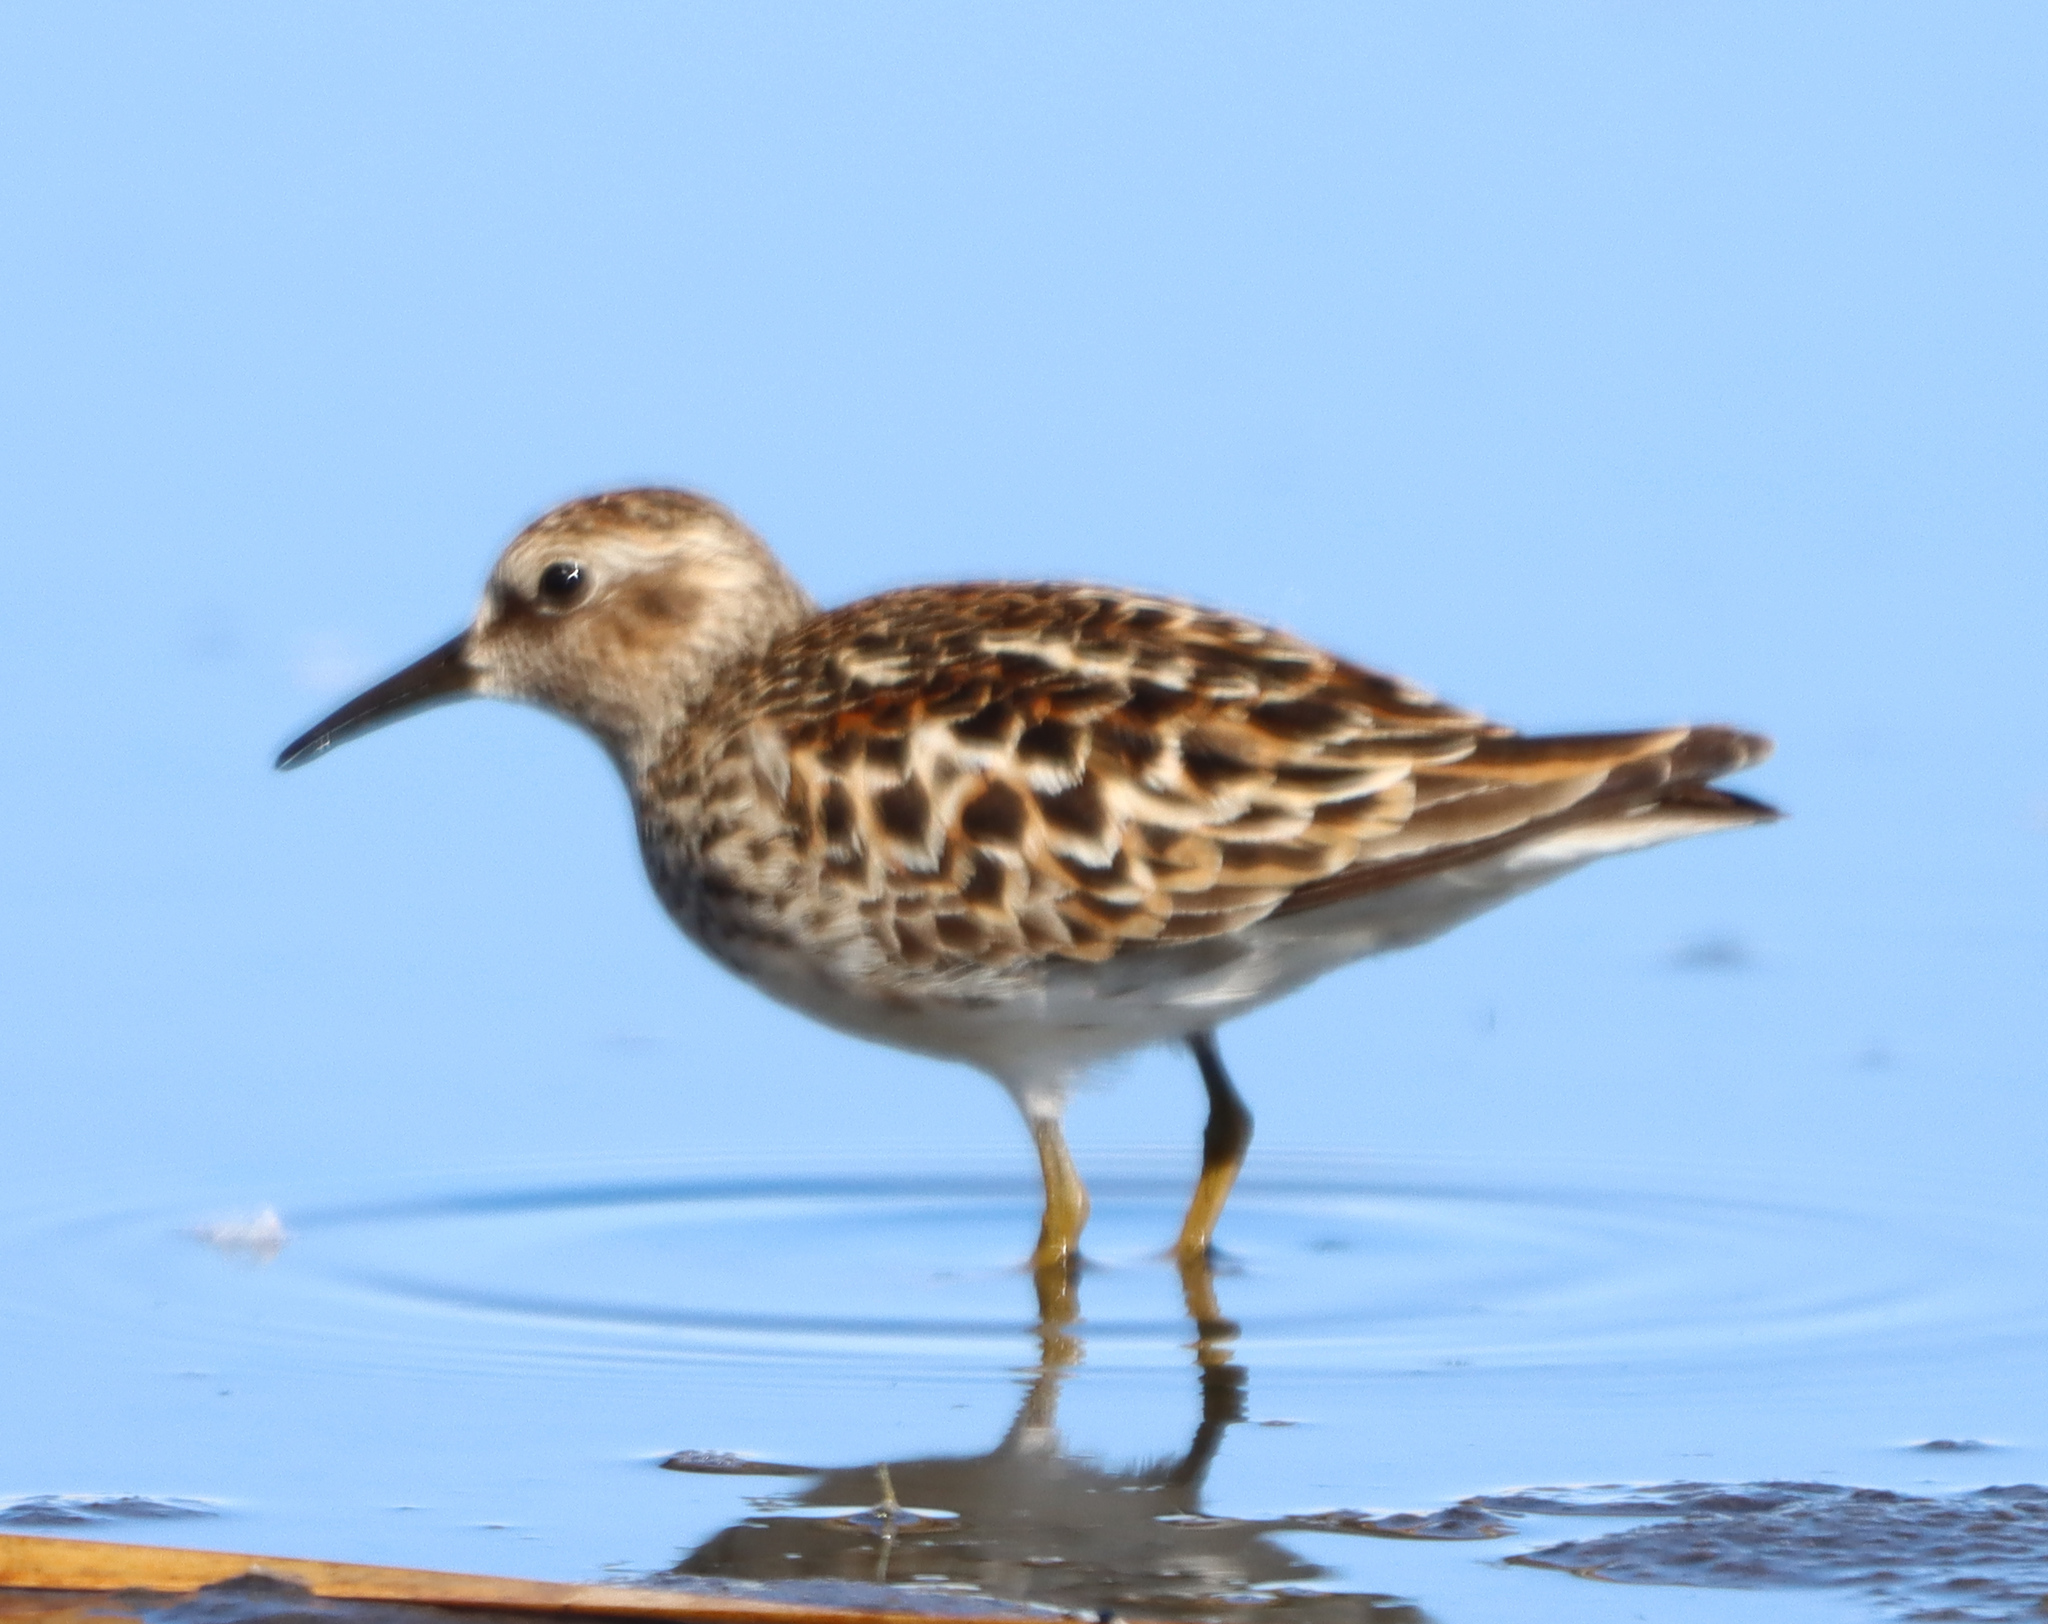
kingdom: Animalia
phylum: Chordata
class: Aves
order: Charadriiformes
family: Scolopacidae
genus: Calidris
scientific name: Calidris minutilla
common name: Least sandpiper
